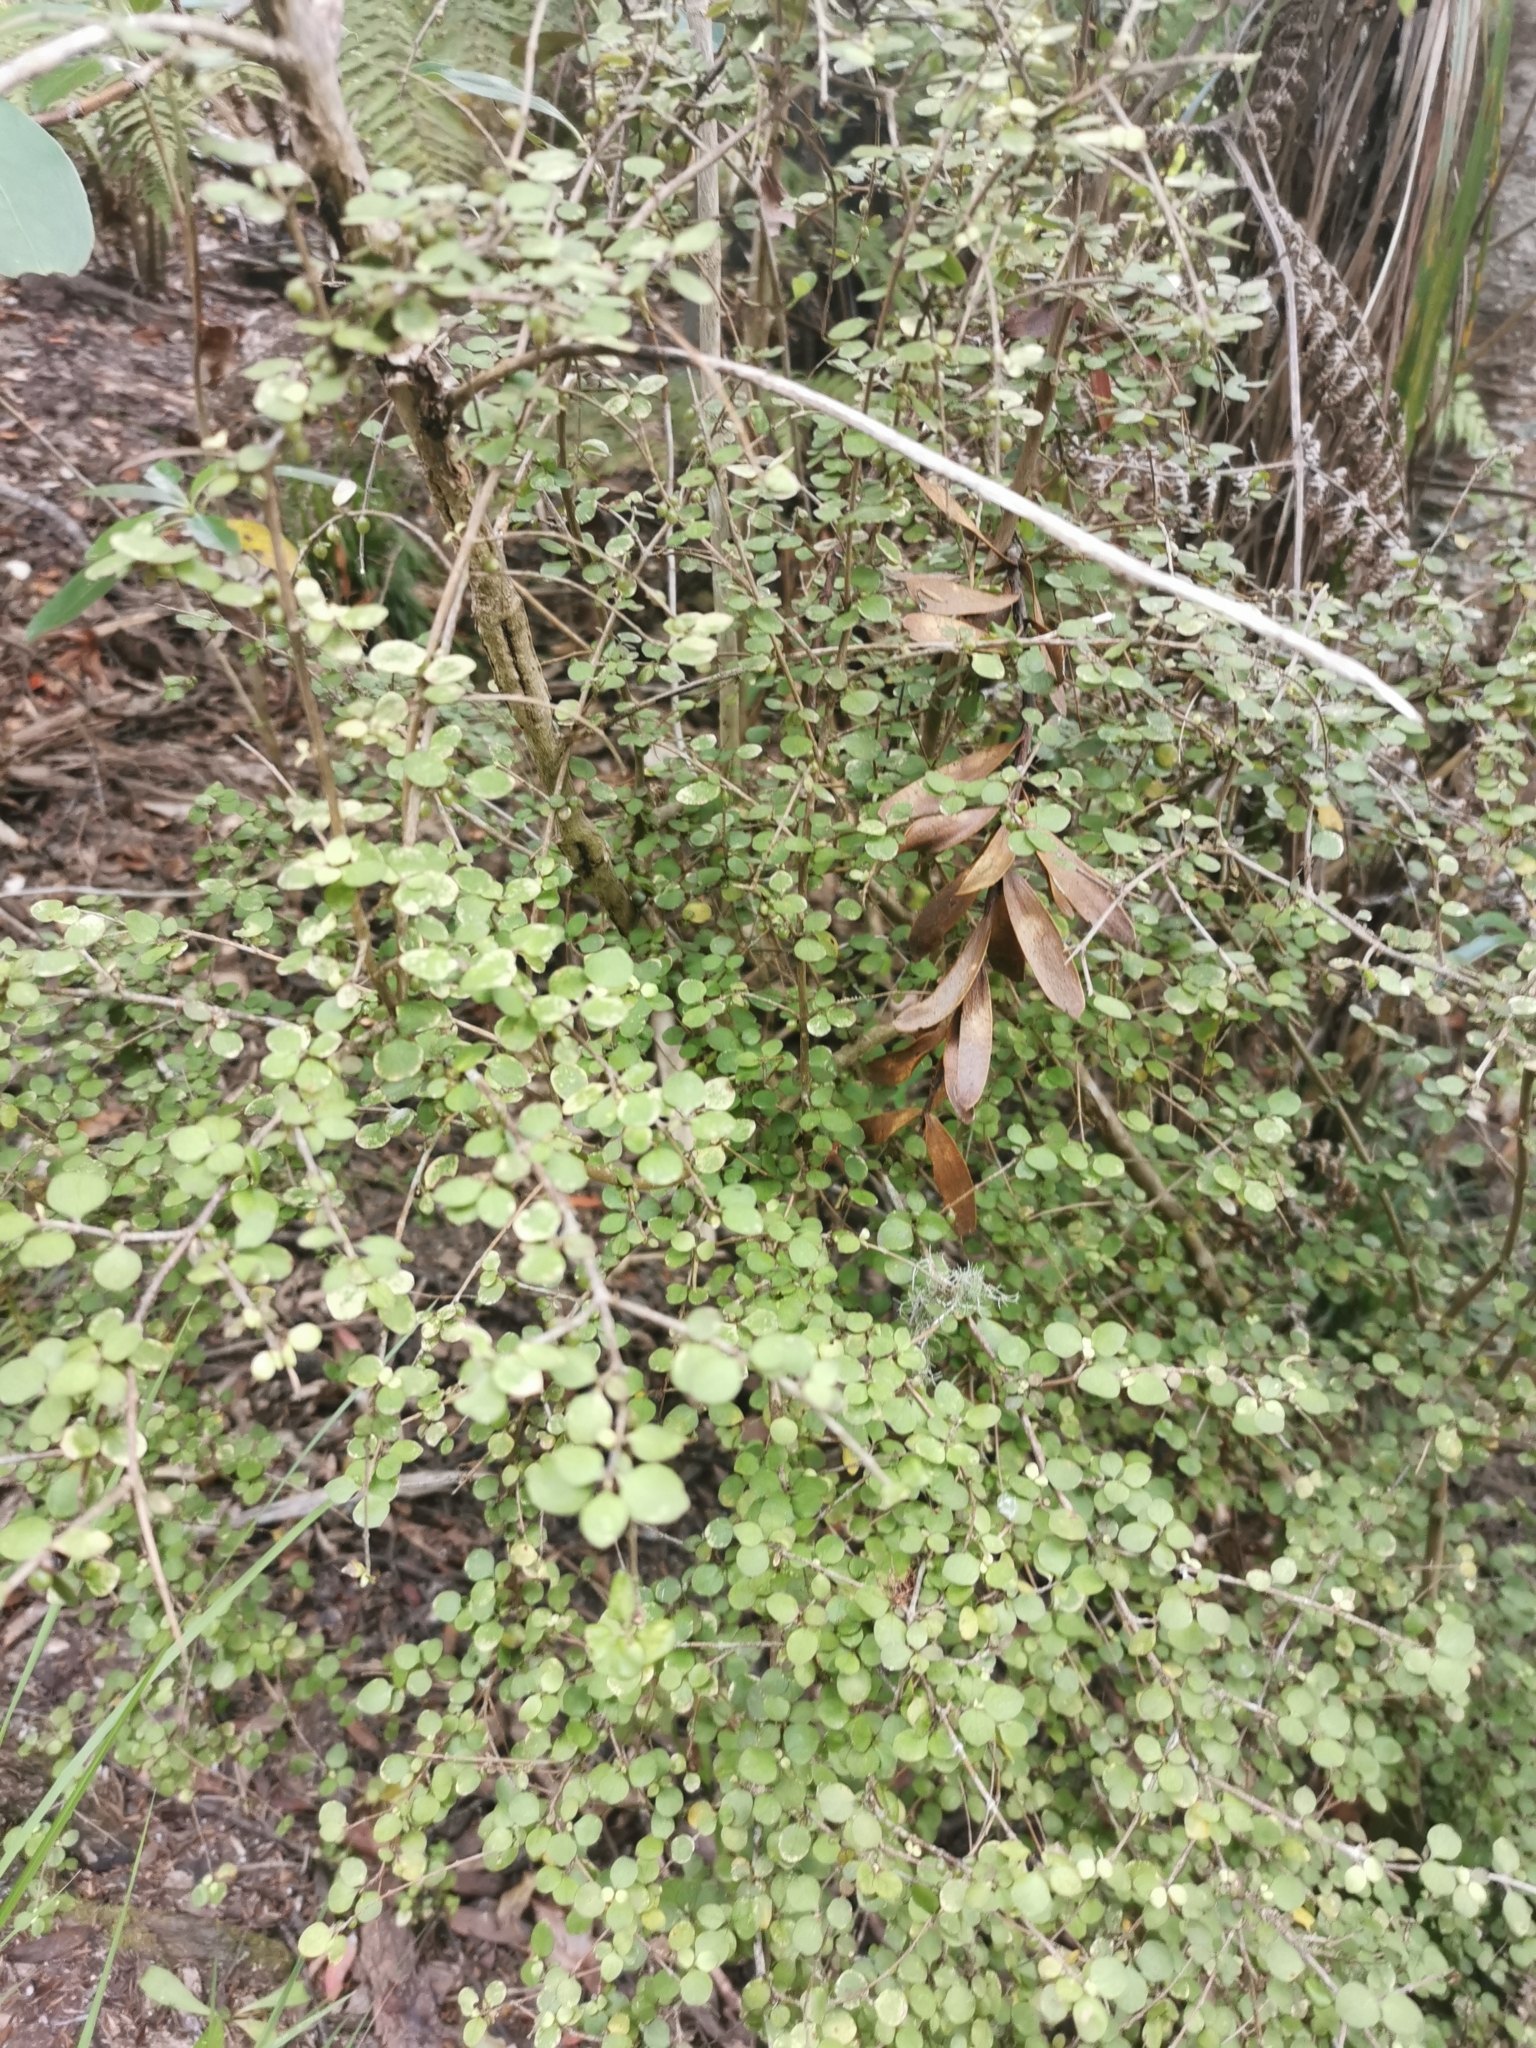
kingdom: Plantae
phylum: Tracheophyta
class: Magnoliopsida
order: Gentianales
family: Rubiaceae
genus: Coprosma
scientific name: Coprosma rhamnoides
